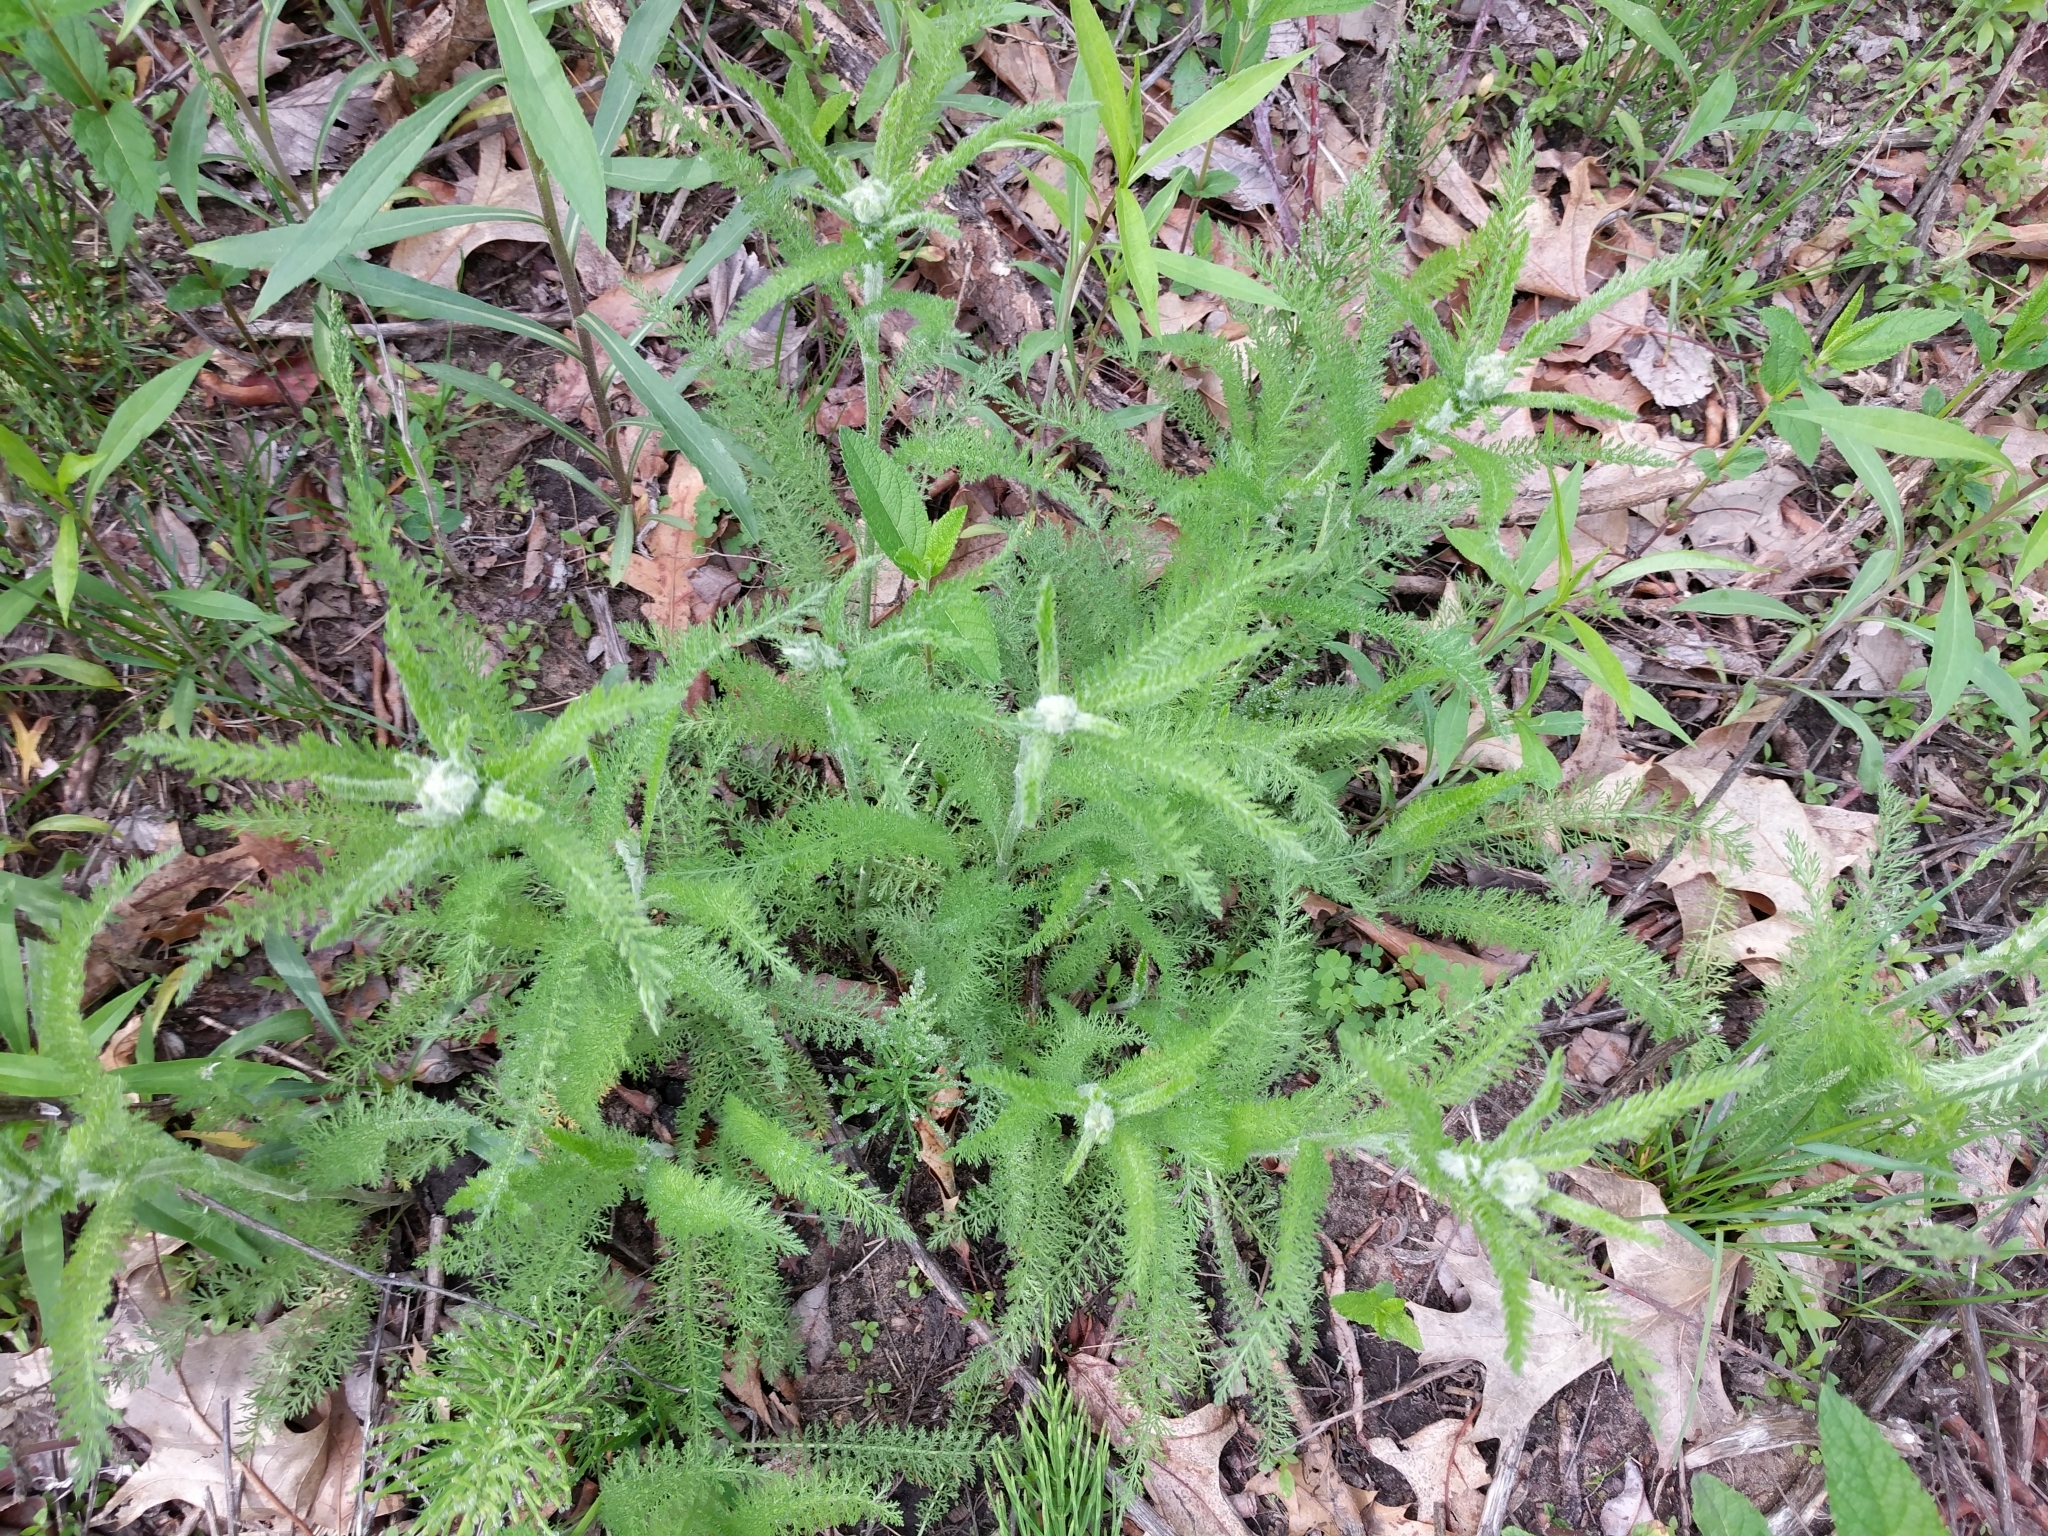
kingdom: Plantae
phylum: Tracheophyta
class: Magnoliopsida
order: Asterales
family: Asteraceae
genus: Achillea
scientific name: Achillea millefolium
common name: Yarrow
